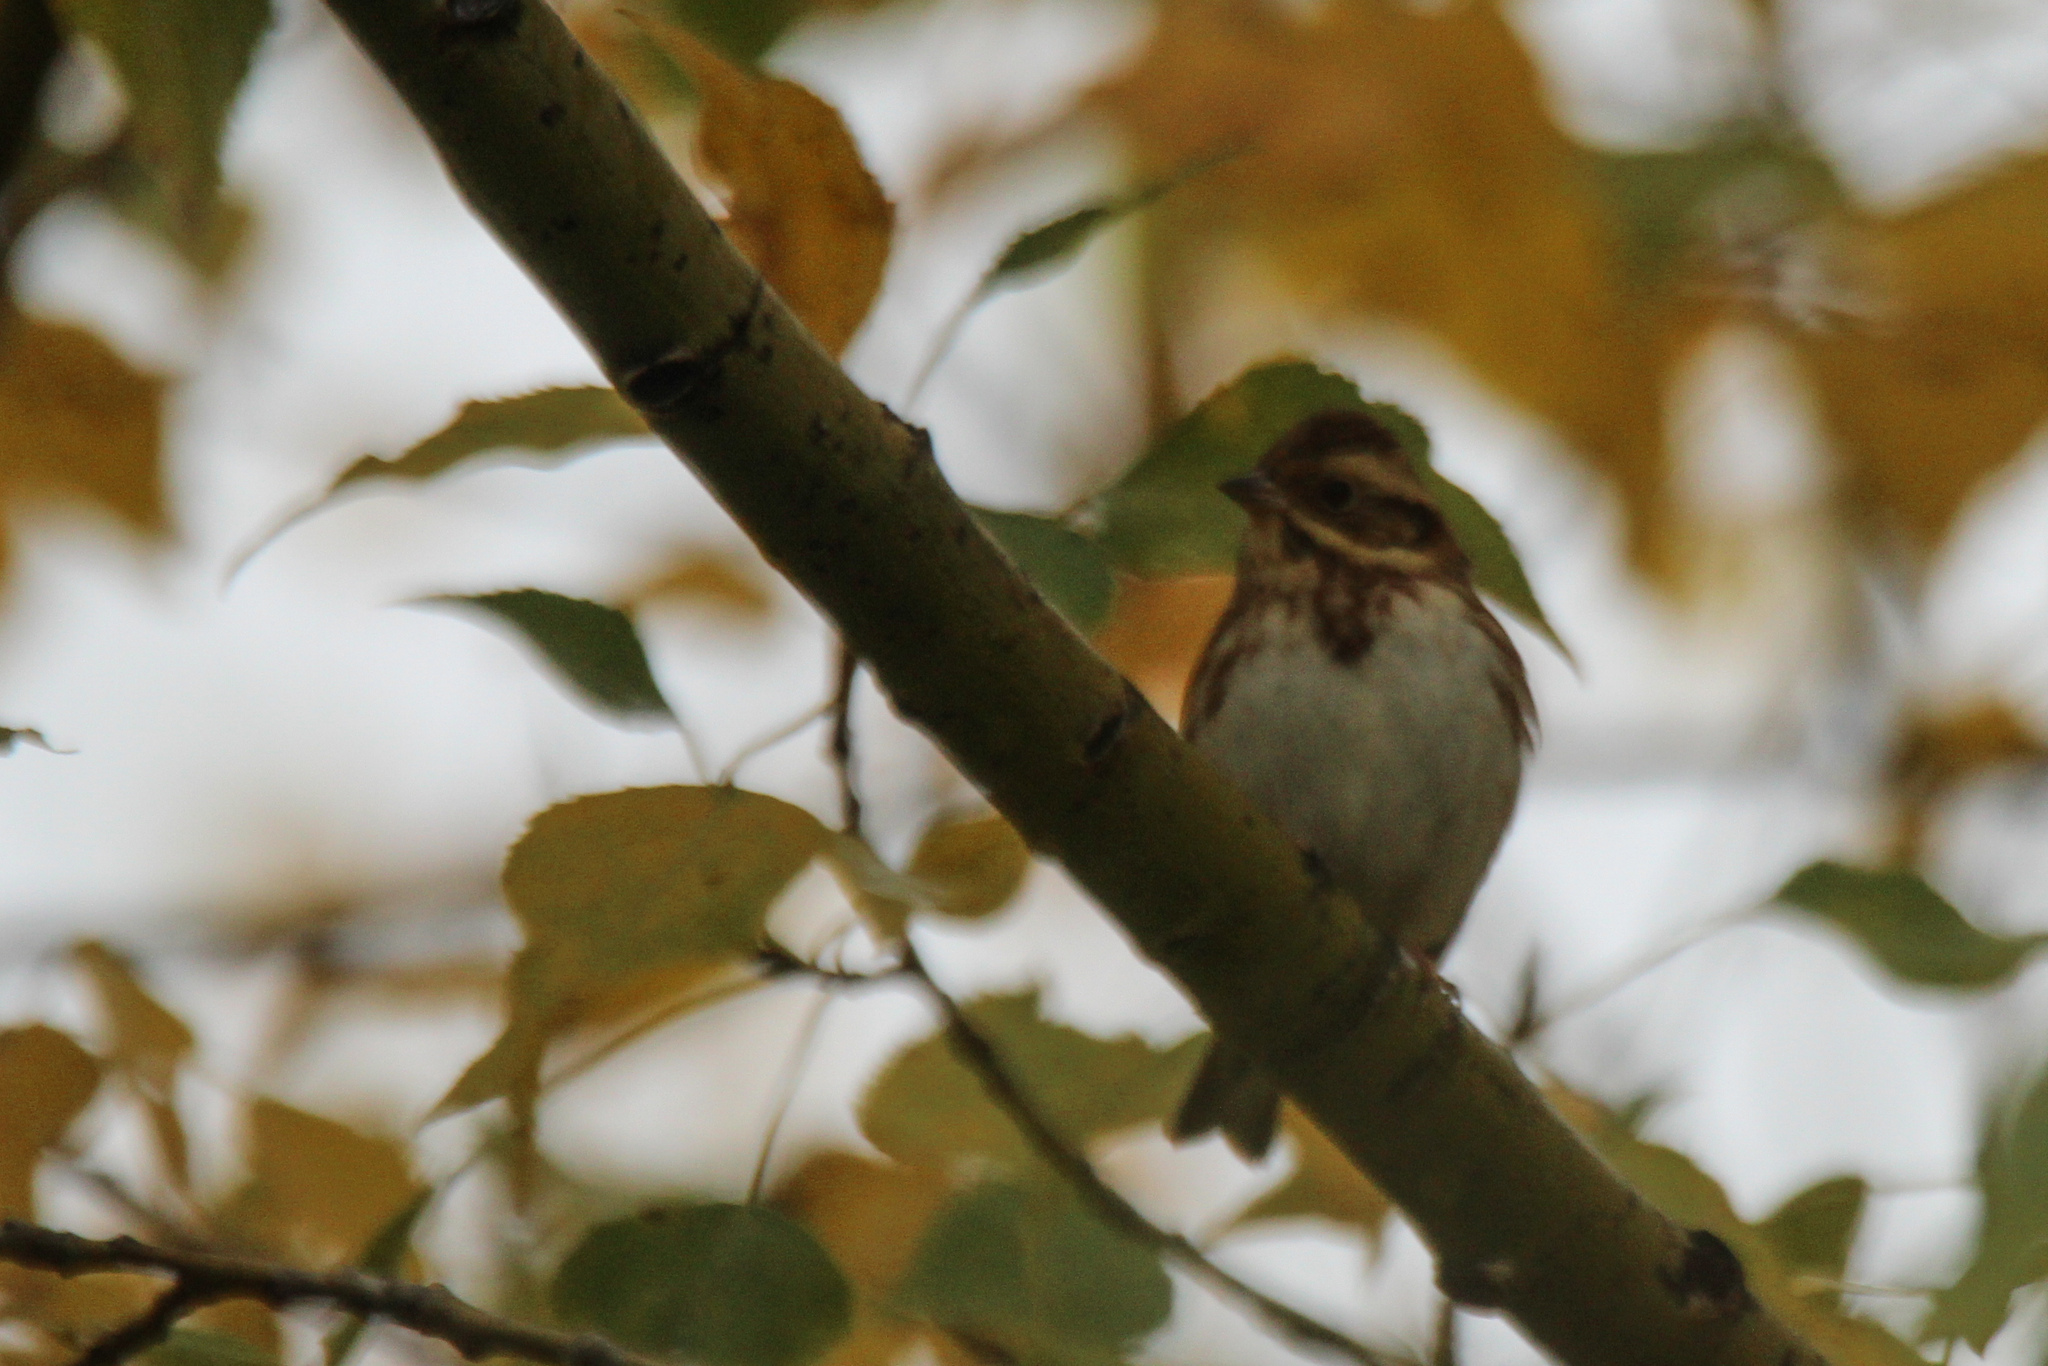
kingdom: Animalia
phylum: Chordata
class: Aves
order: Passeriformes
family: Emberizidae
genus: Emberiza
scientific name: Emberiza rustica
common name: Rustic bunting
